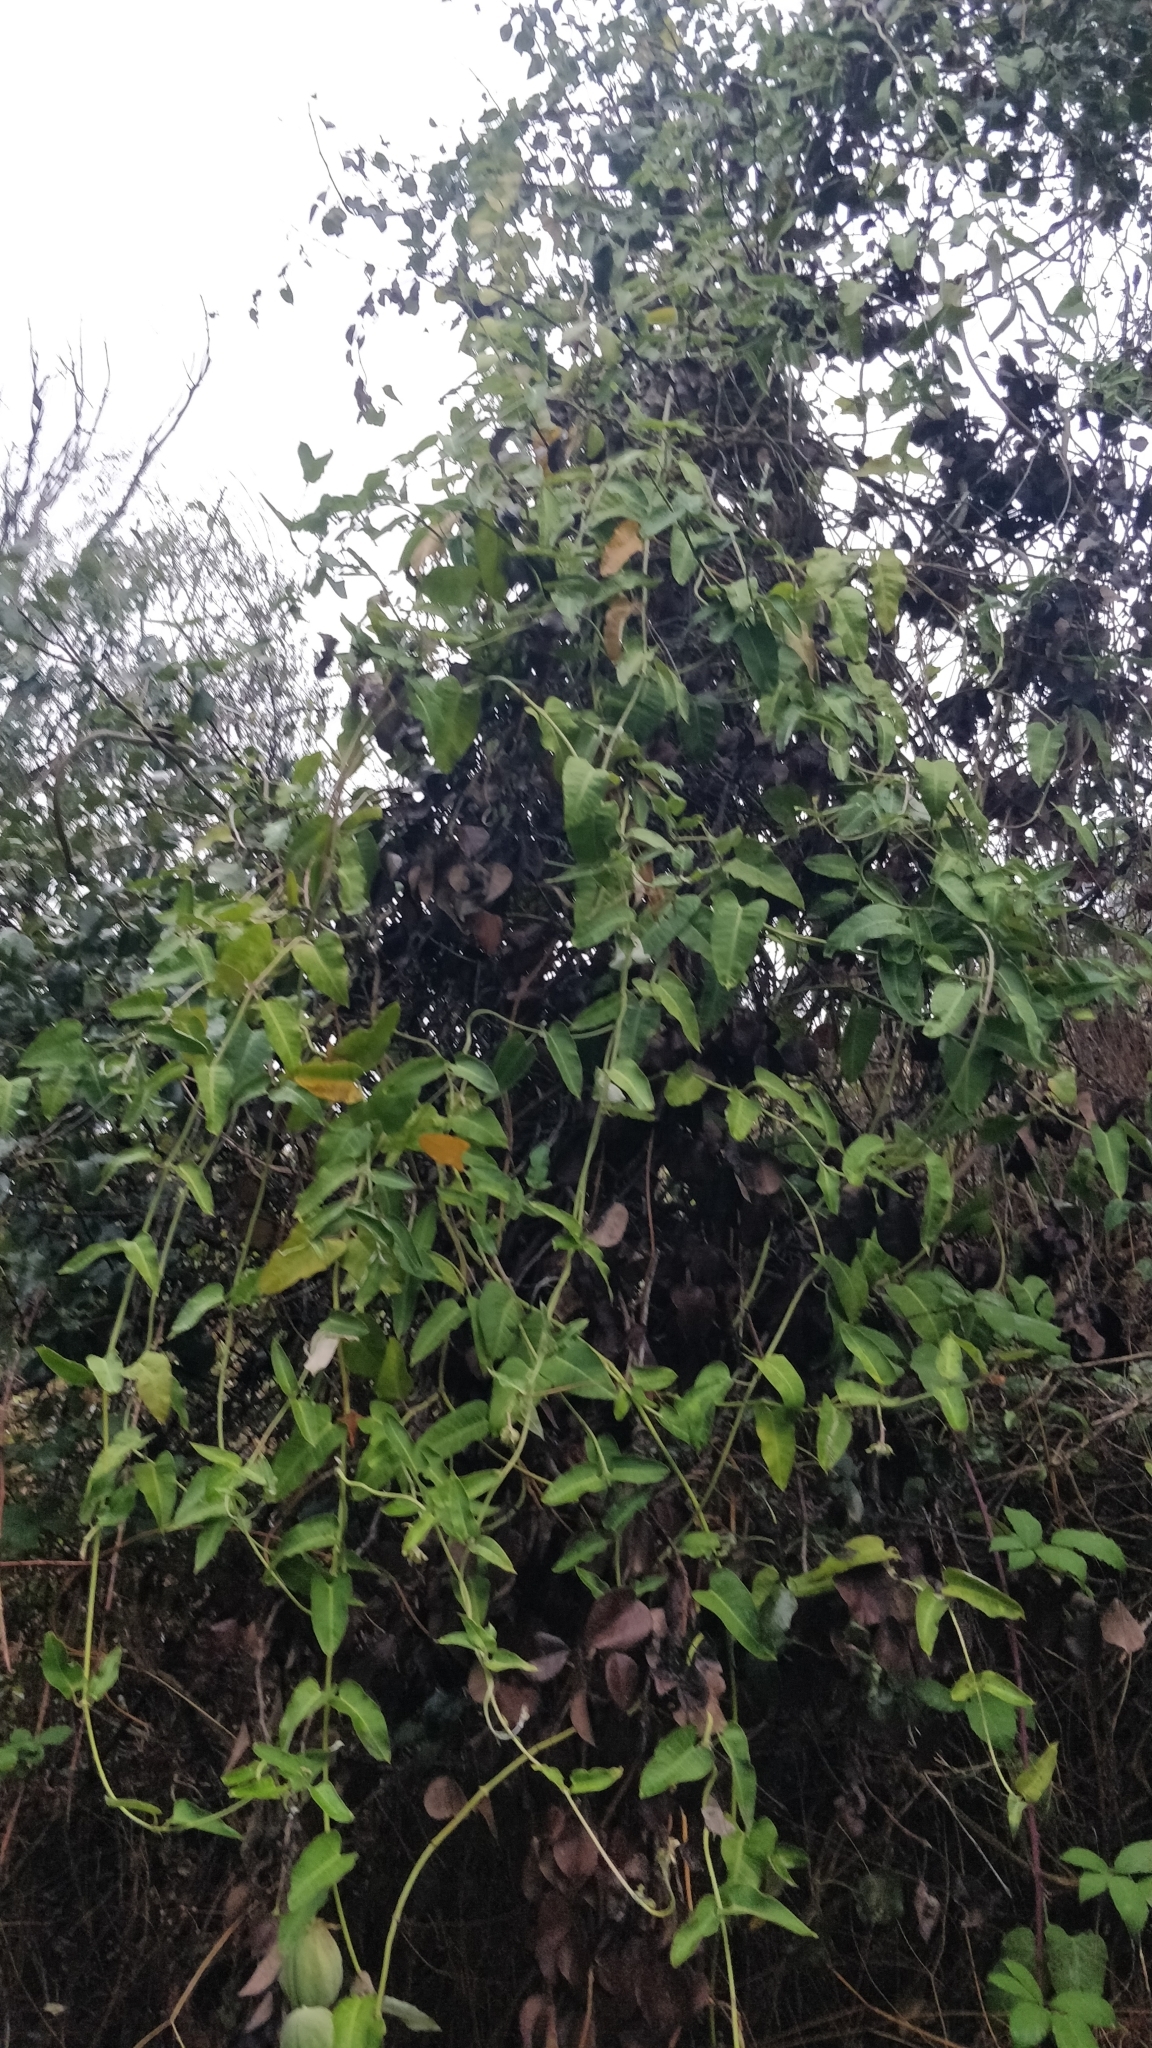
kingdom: Plantae
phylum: Tracheophyta
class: Magnoliopsida
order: Gentianales
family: Apocynaceae
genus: Araujia
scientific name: Araujia sericifera
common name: White bladderflower
